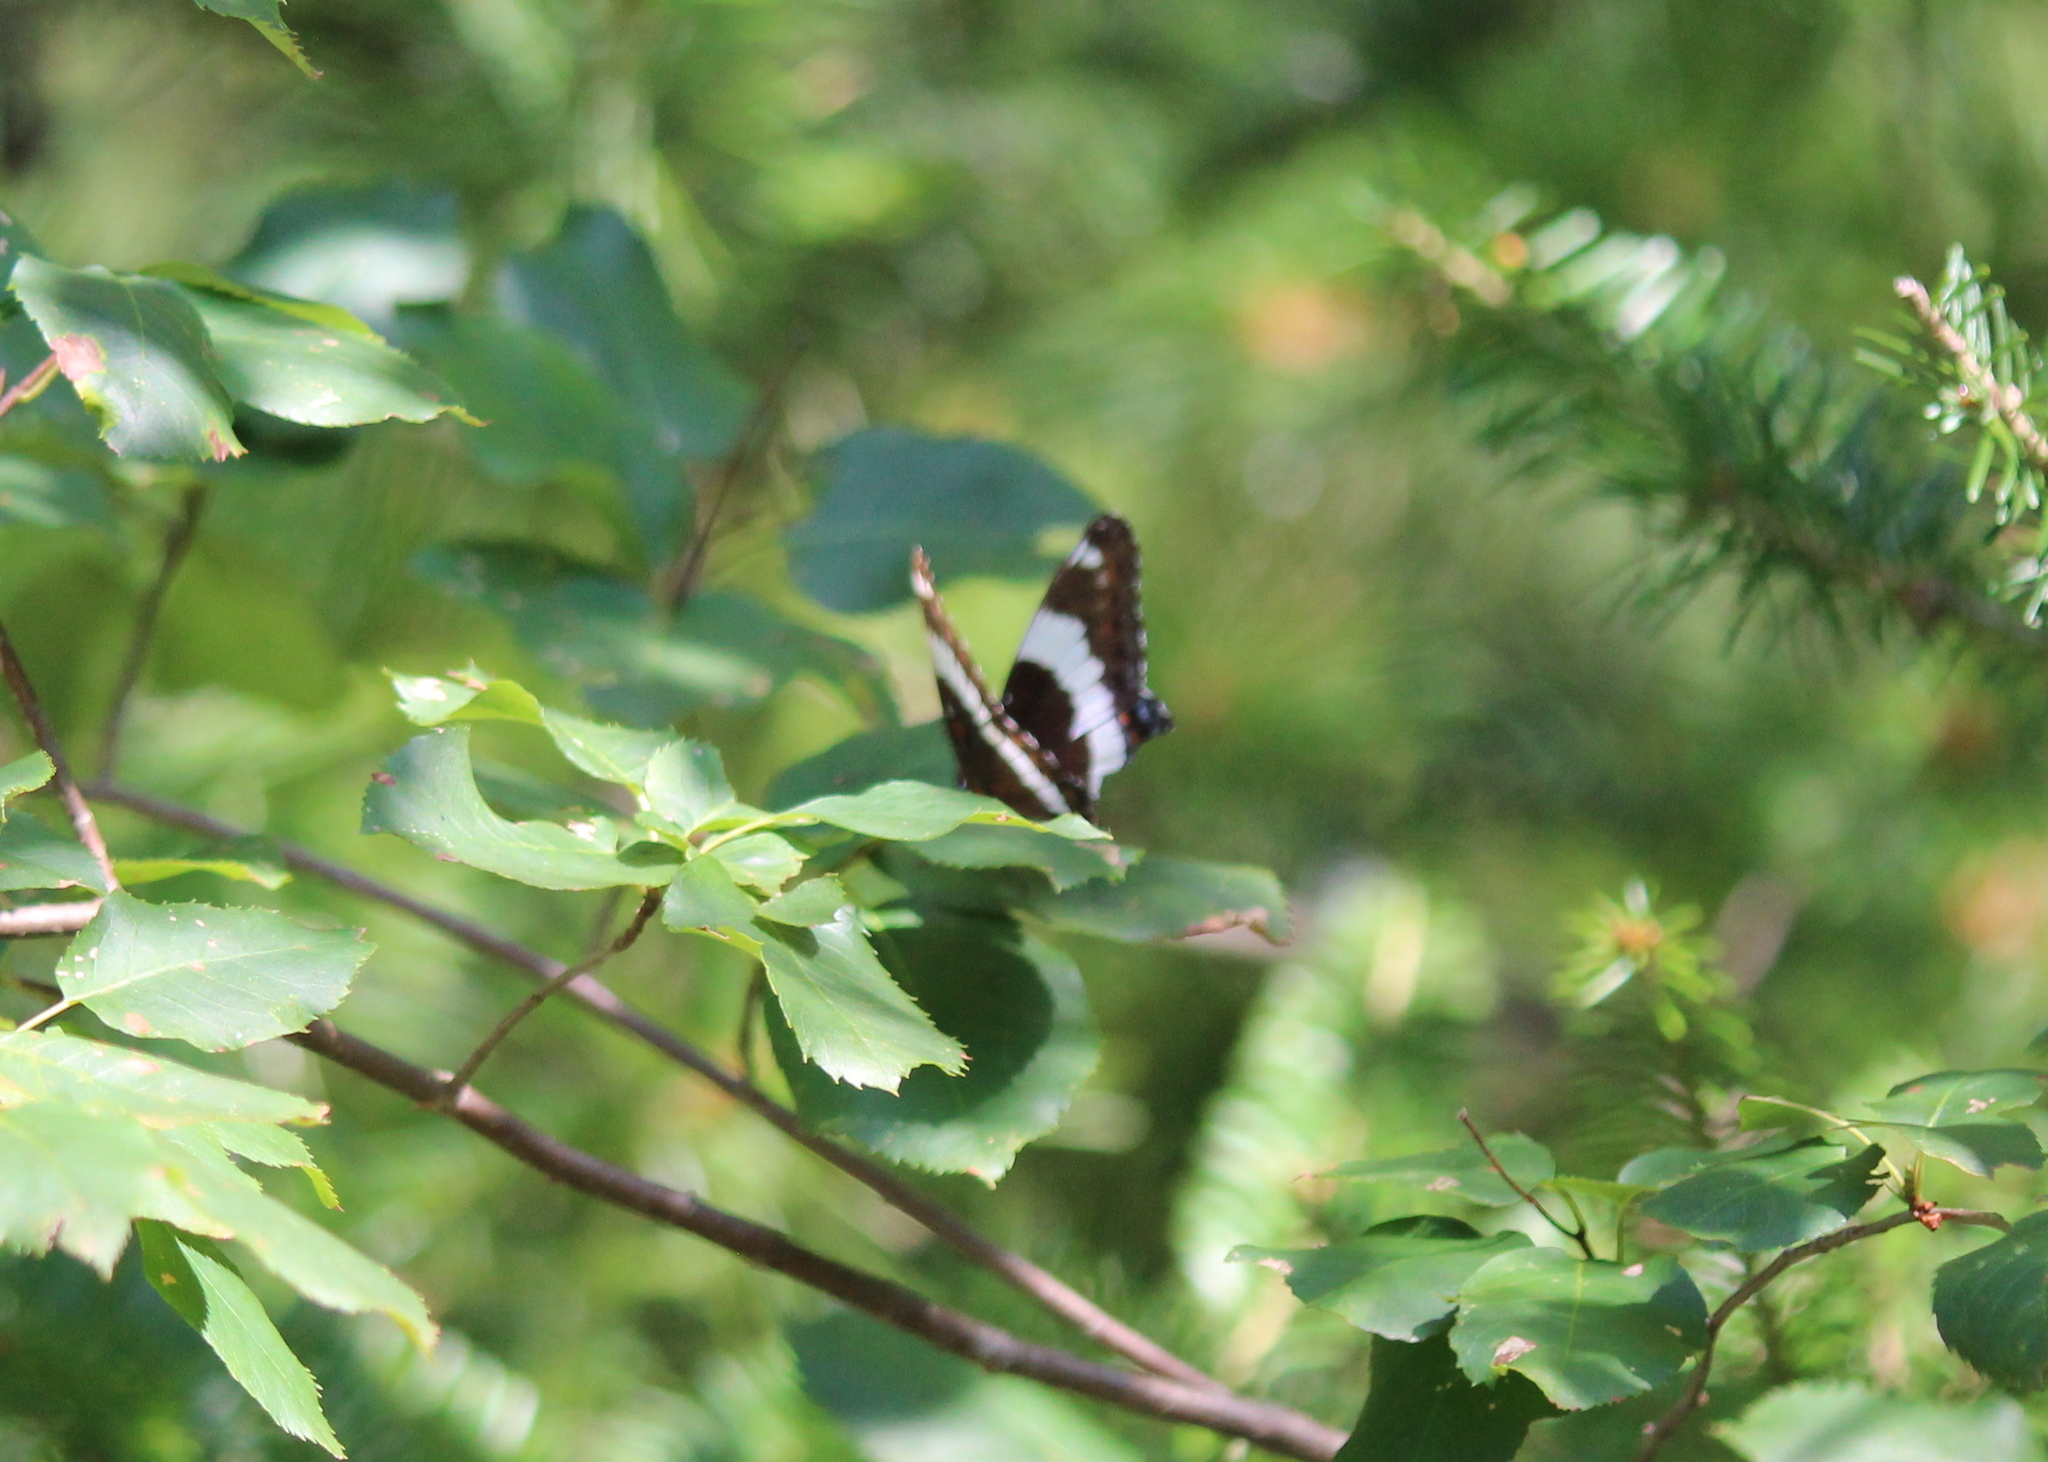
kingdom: Animalia
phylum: Arthropoda
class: Insecta
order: Lepidoptera
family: Nymphalidae
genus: Limenitis
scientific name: Limenitis arthemis
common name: Red-spotted admiral
